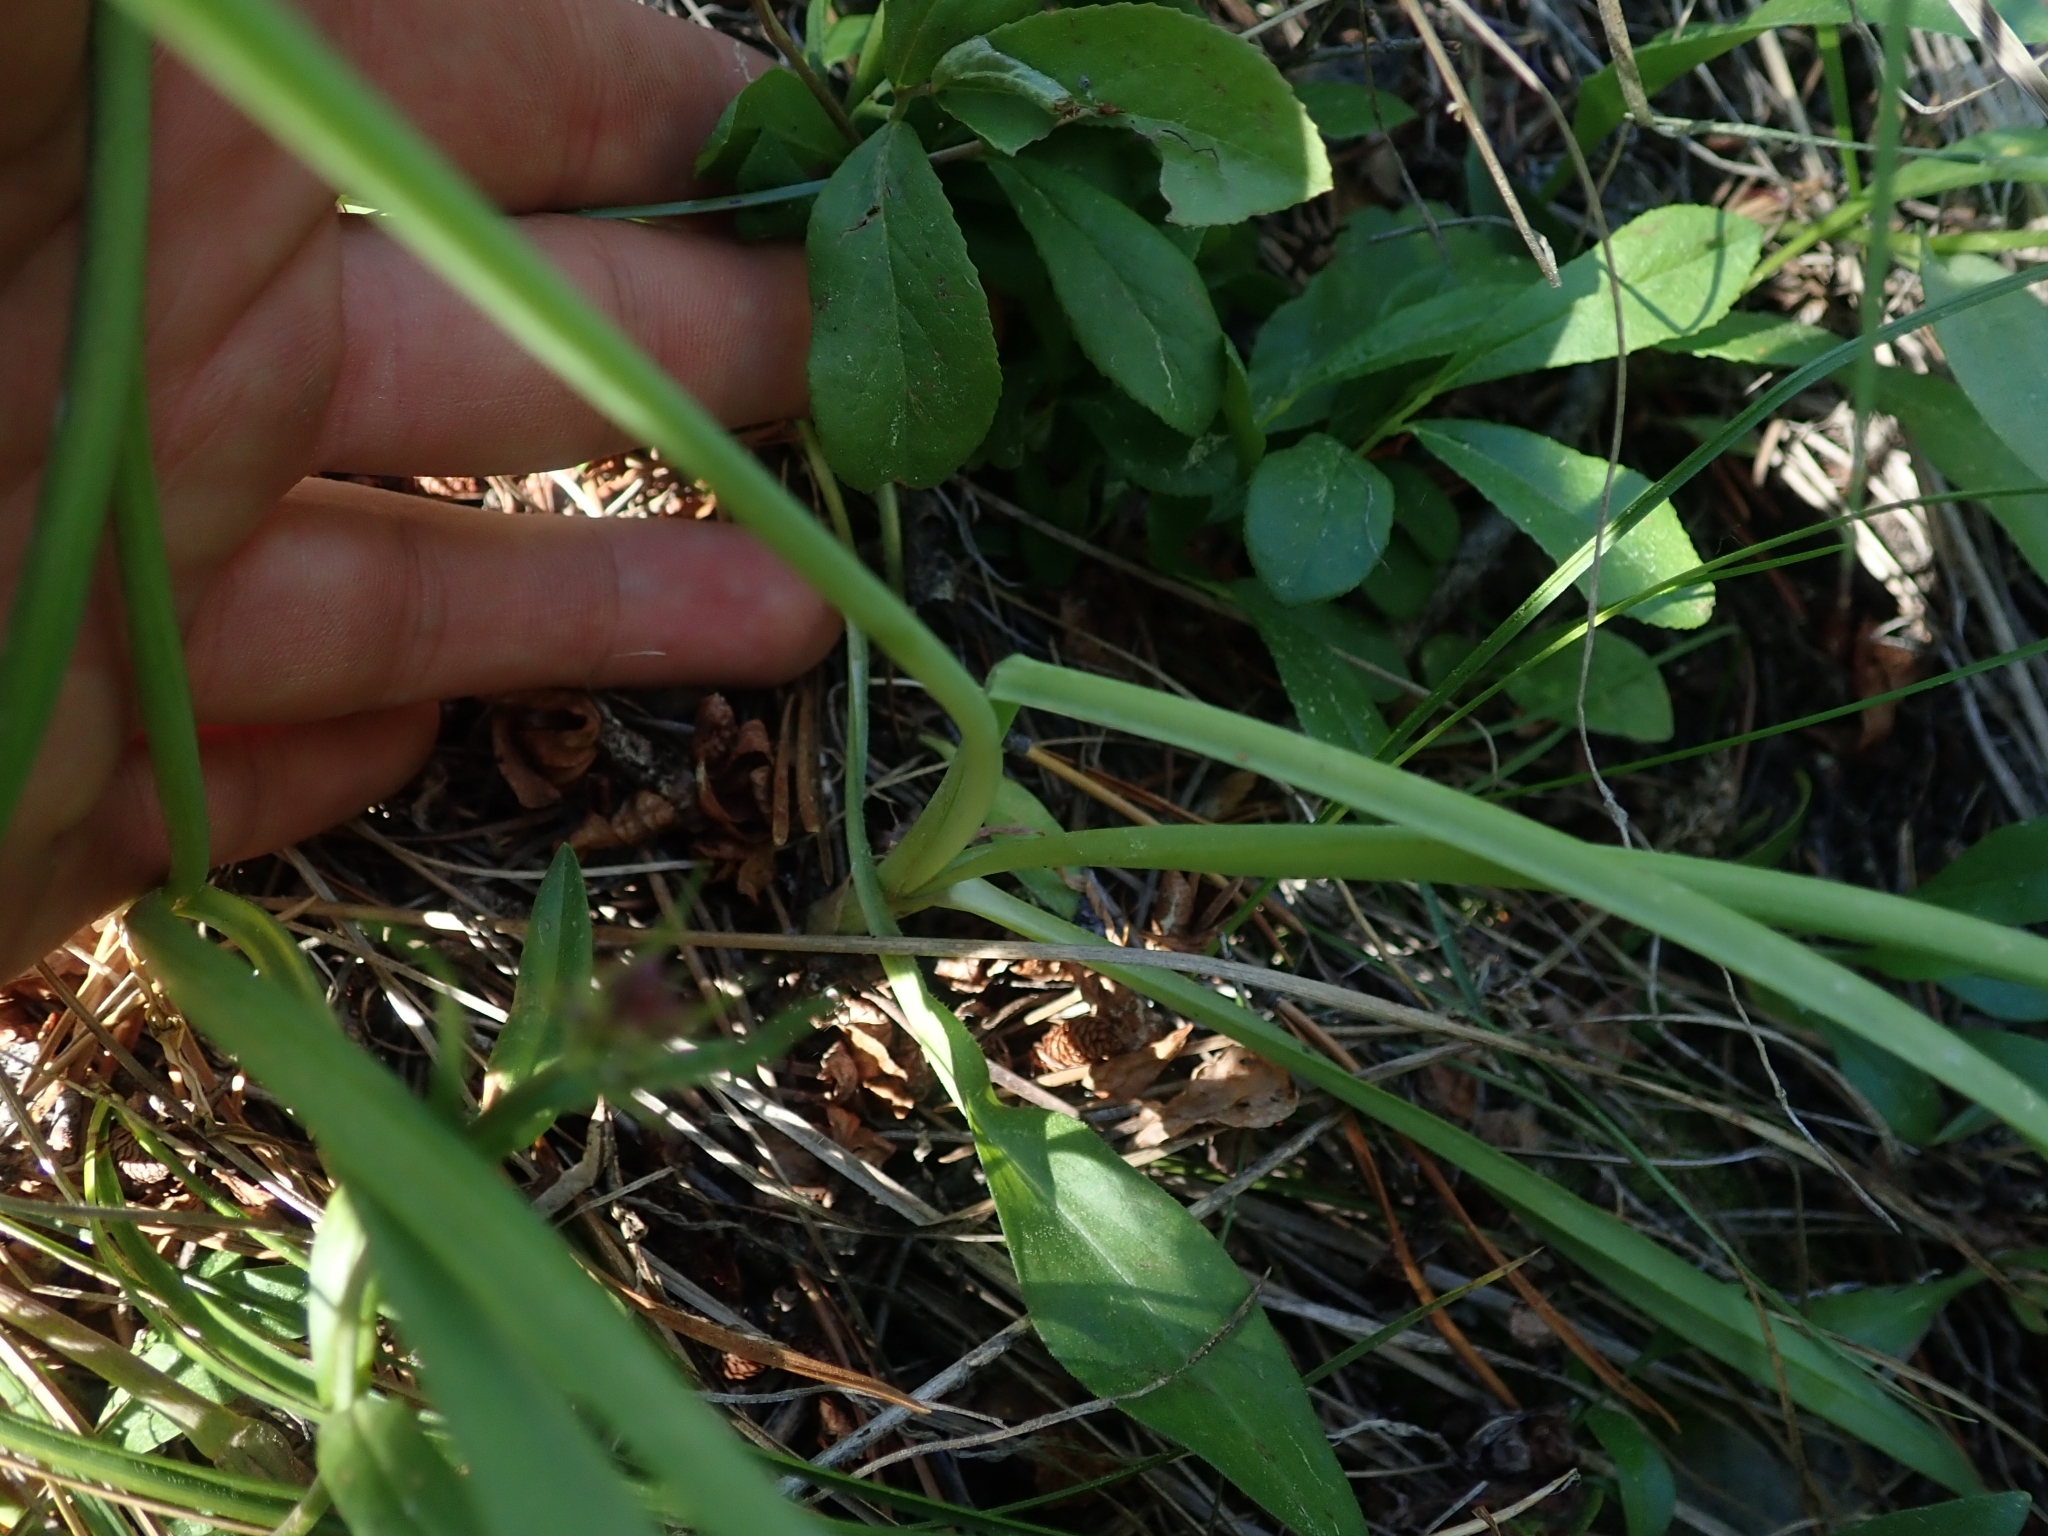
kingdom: Plantae
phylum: Tracheophyta
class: Liliopsida
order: Asparagales
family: Amaryllidaceae
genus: Allium
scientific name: Allium brevistylum
